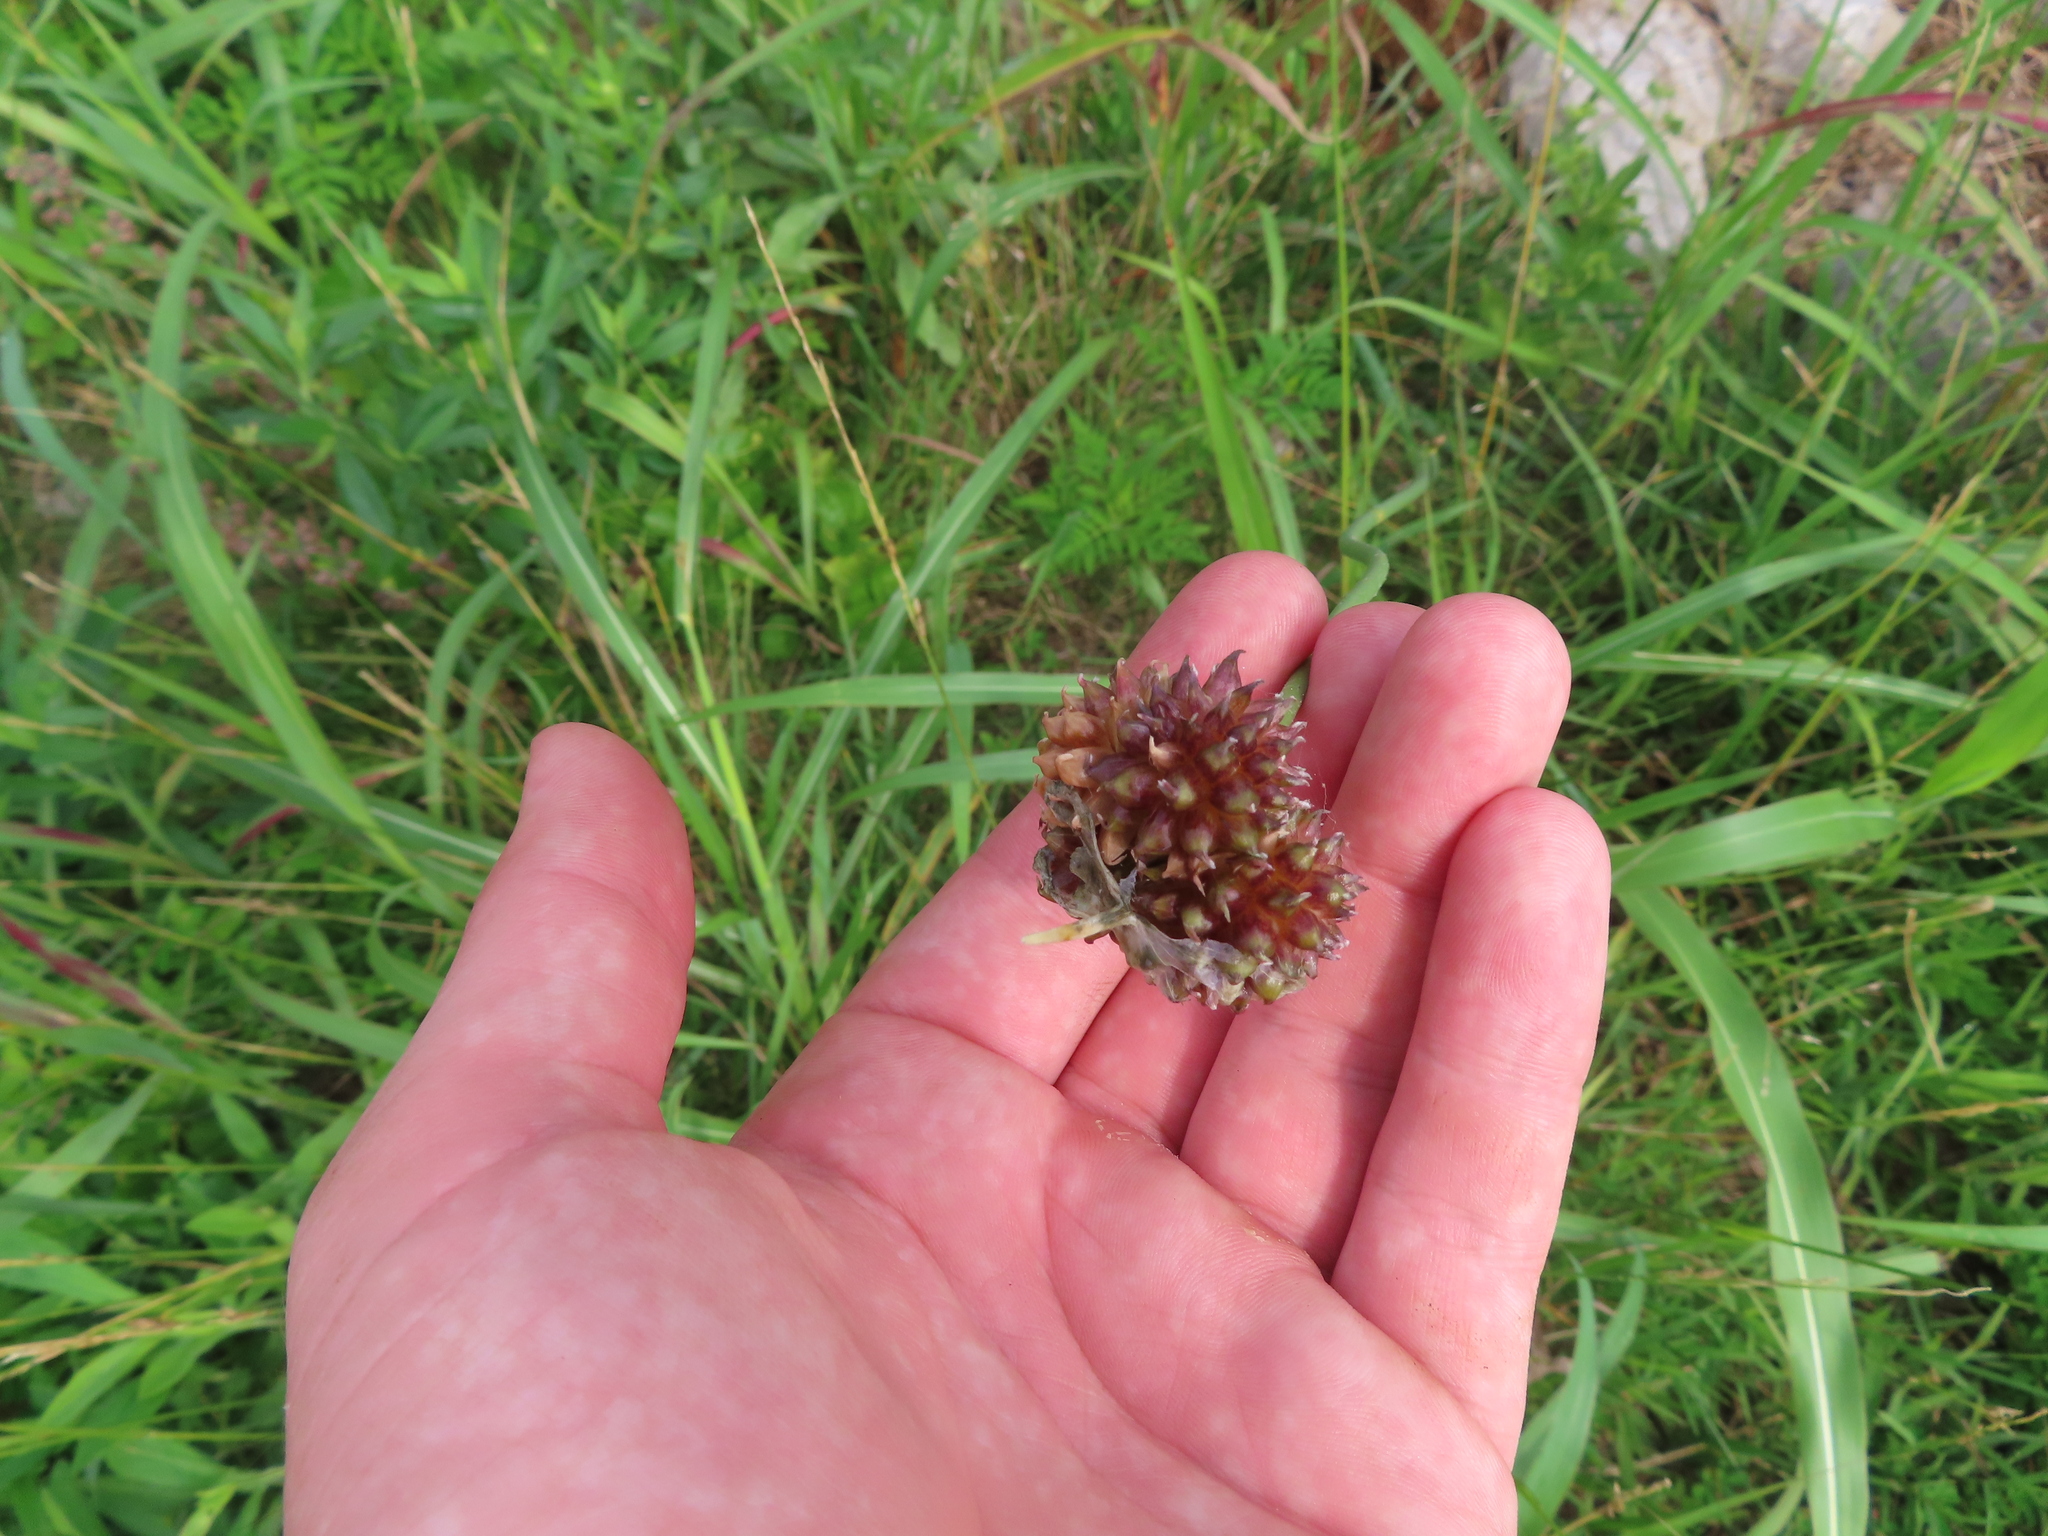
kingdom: Plantae
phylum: Tracheophyta
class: Liliopsida
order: Asparagales
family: Amaryllidaceae
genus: Allium
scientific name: Allium vineale
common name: Crow garlic
